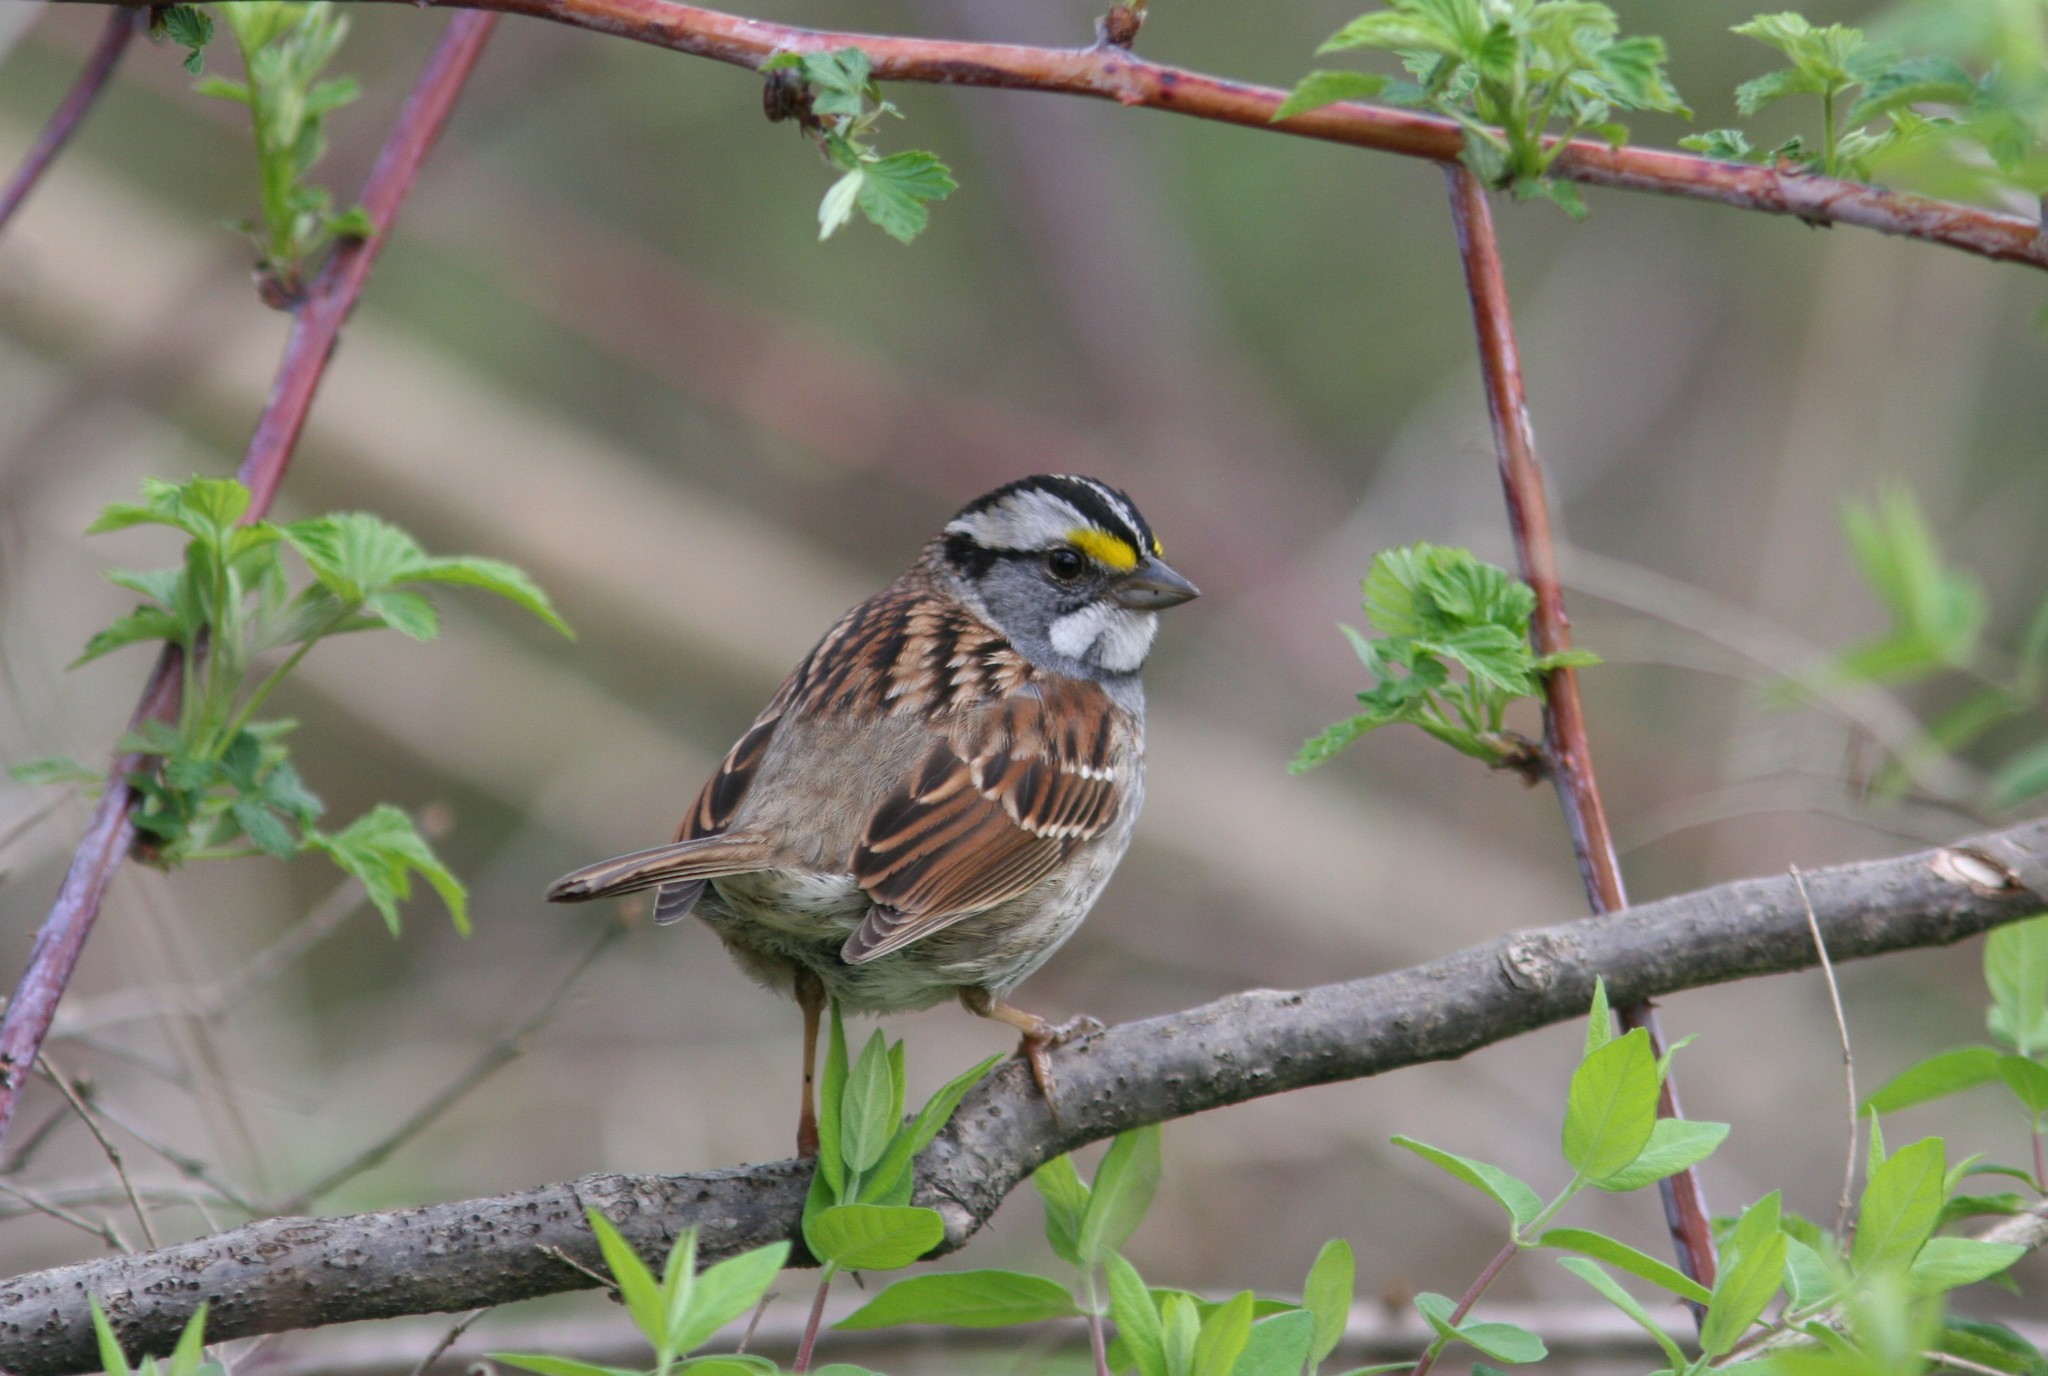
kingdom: Animalia
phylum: Chordata
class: Aves
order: Passeriformes
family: Passerellidae
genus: Zonotrichia
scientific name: Zonotrichia albicollis
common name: White-throated sparrow
